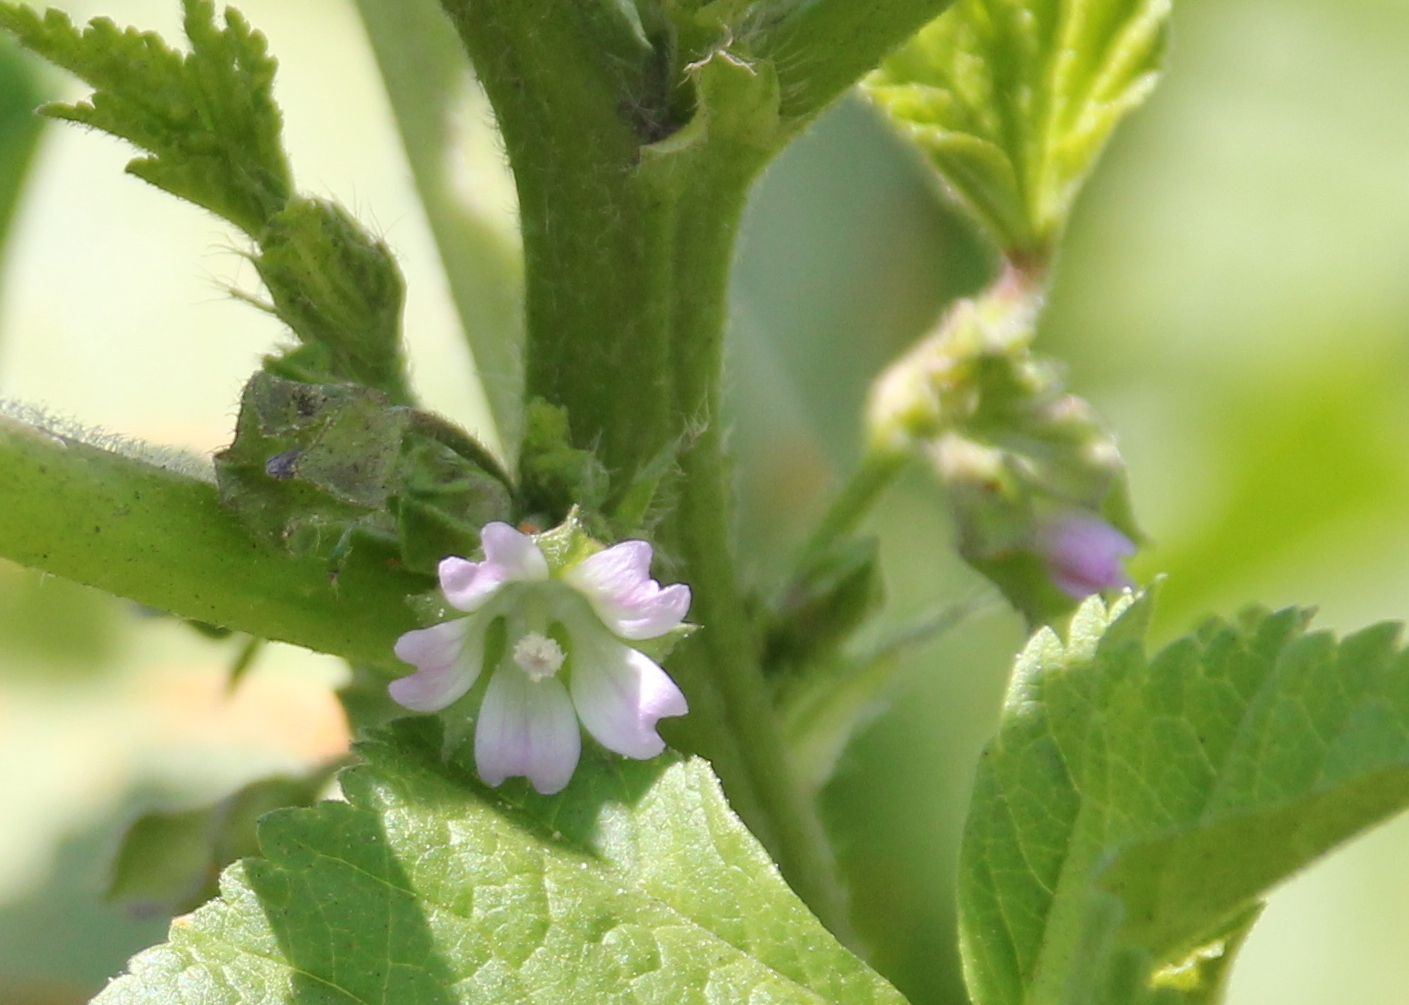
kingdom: Plantae
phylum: Tracheophyta
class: Magnoliopsida
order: Malvales
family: Malvaceae
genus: Malva
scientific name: Malva parviflora
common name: Least mallow
